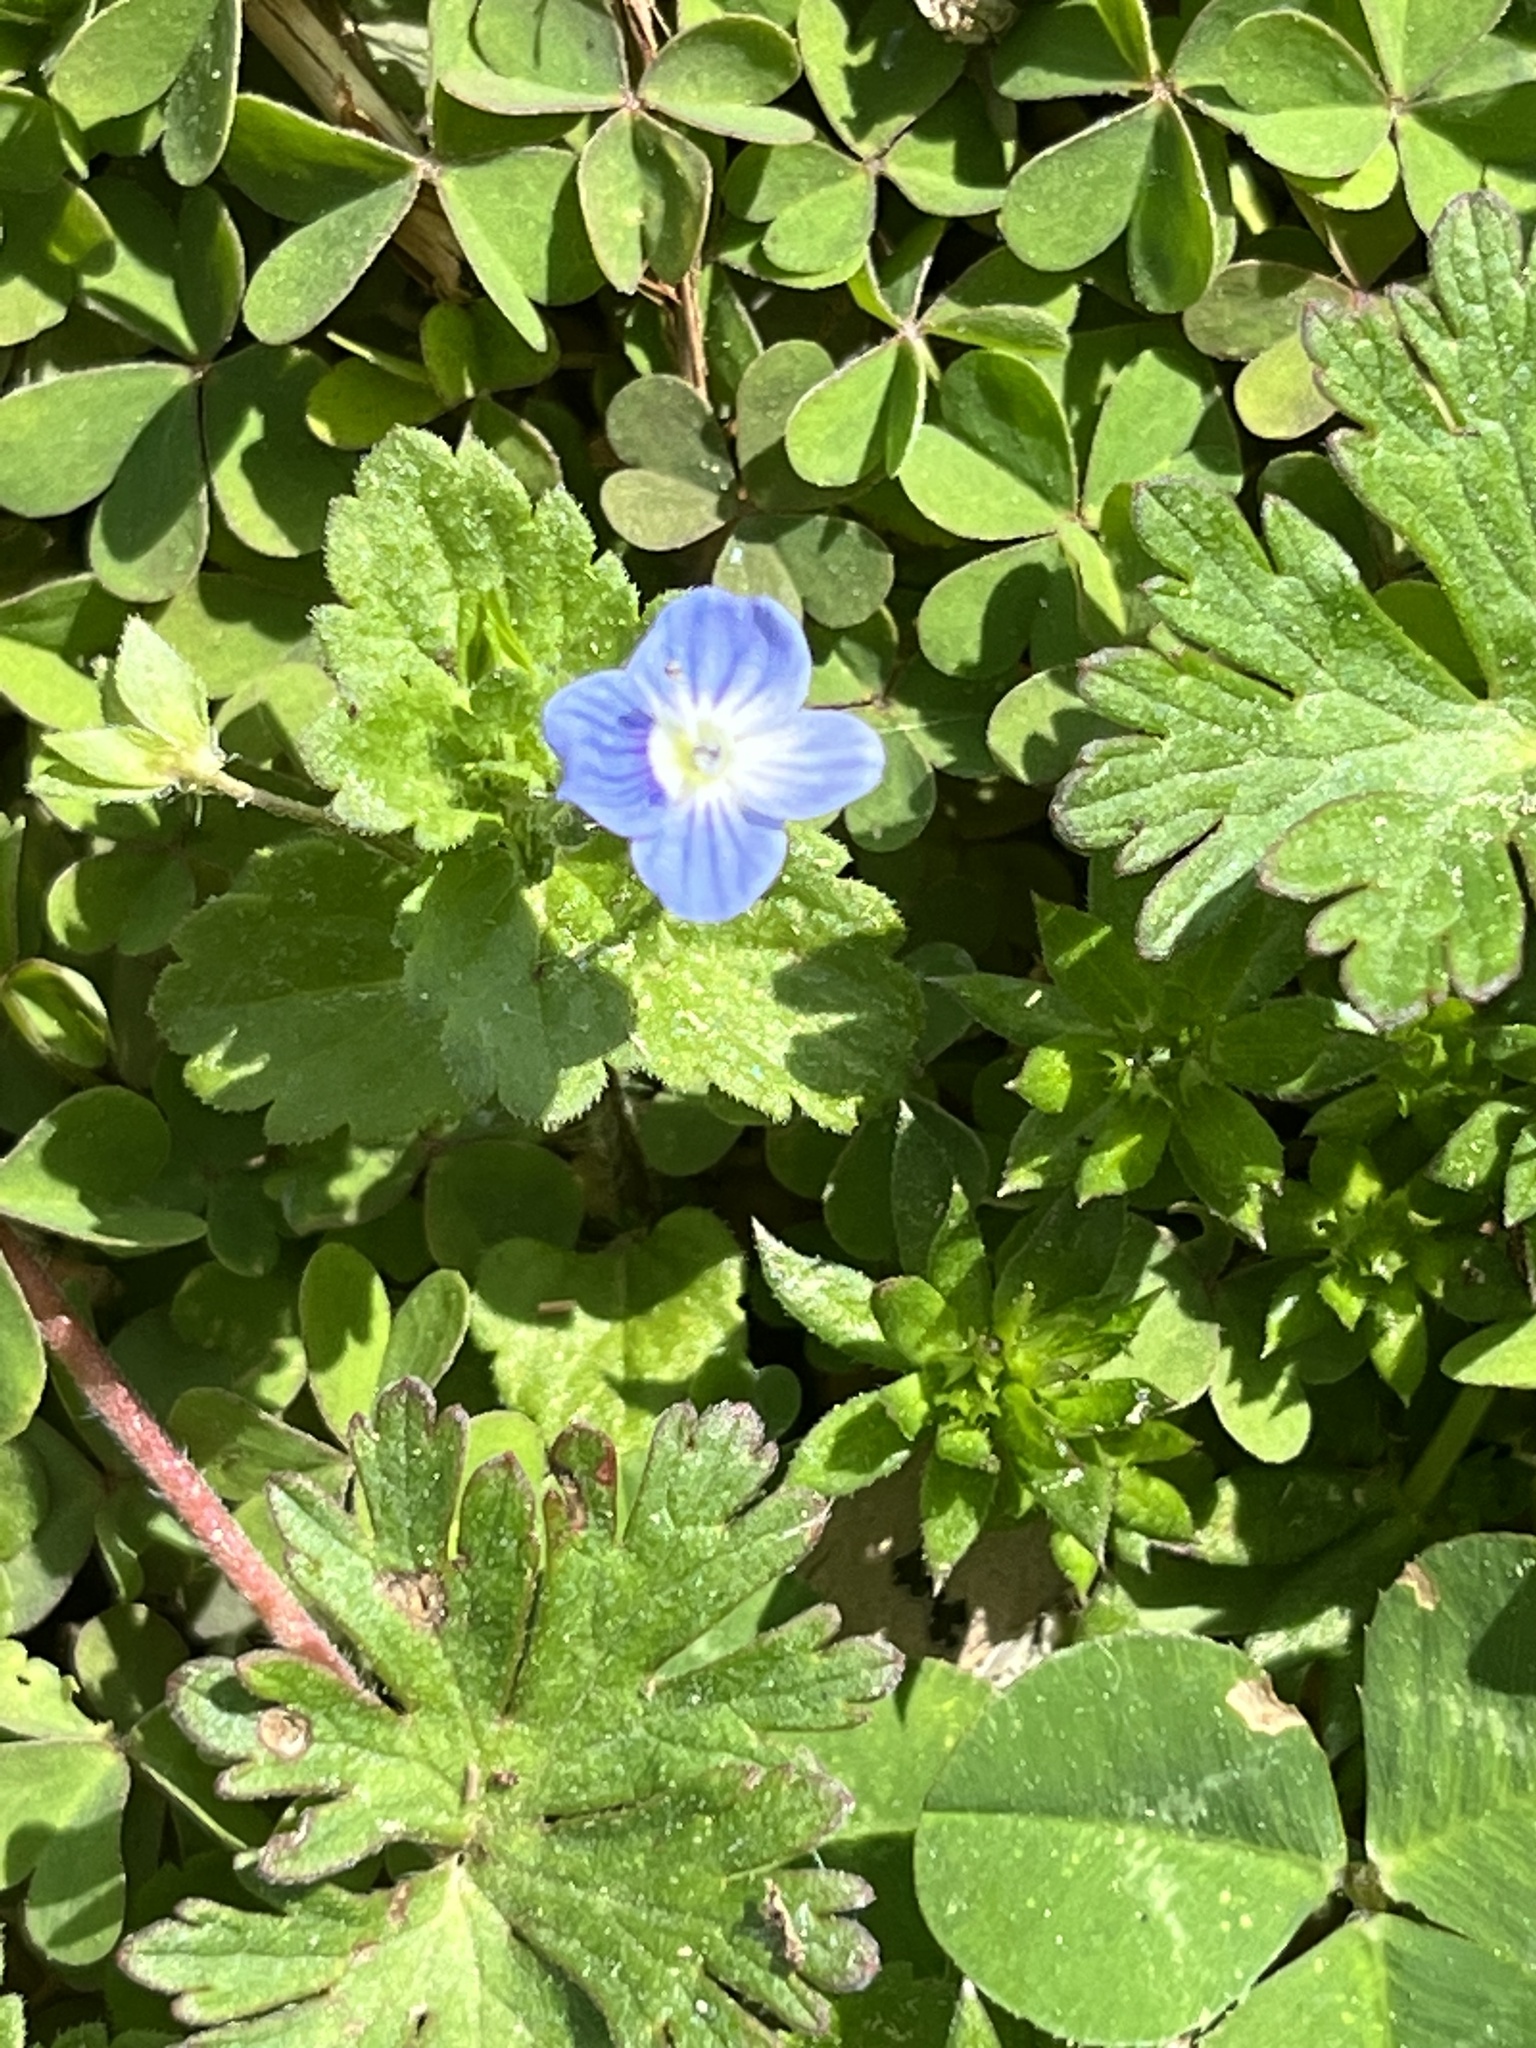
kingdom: Plantae
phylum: Tracheophyta
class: Magnoliopsida
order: Lamiales
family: Plantaginaceae
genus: Veronica
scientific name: Veronica persica
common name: Common field-speedwell
